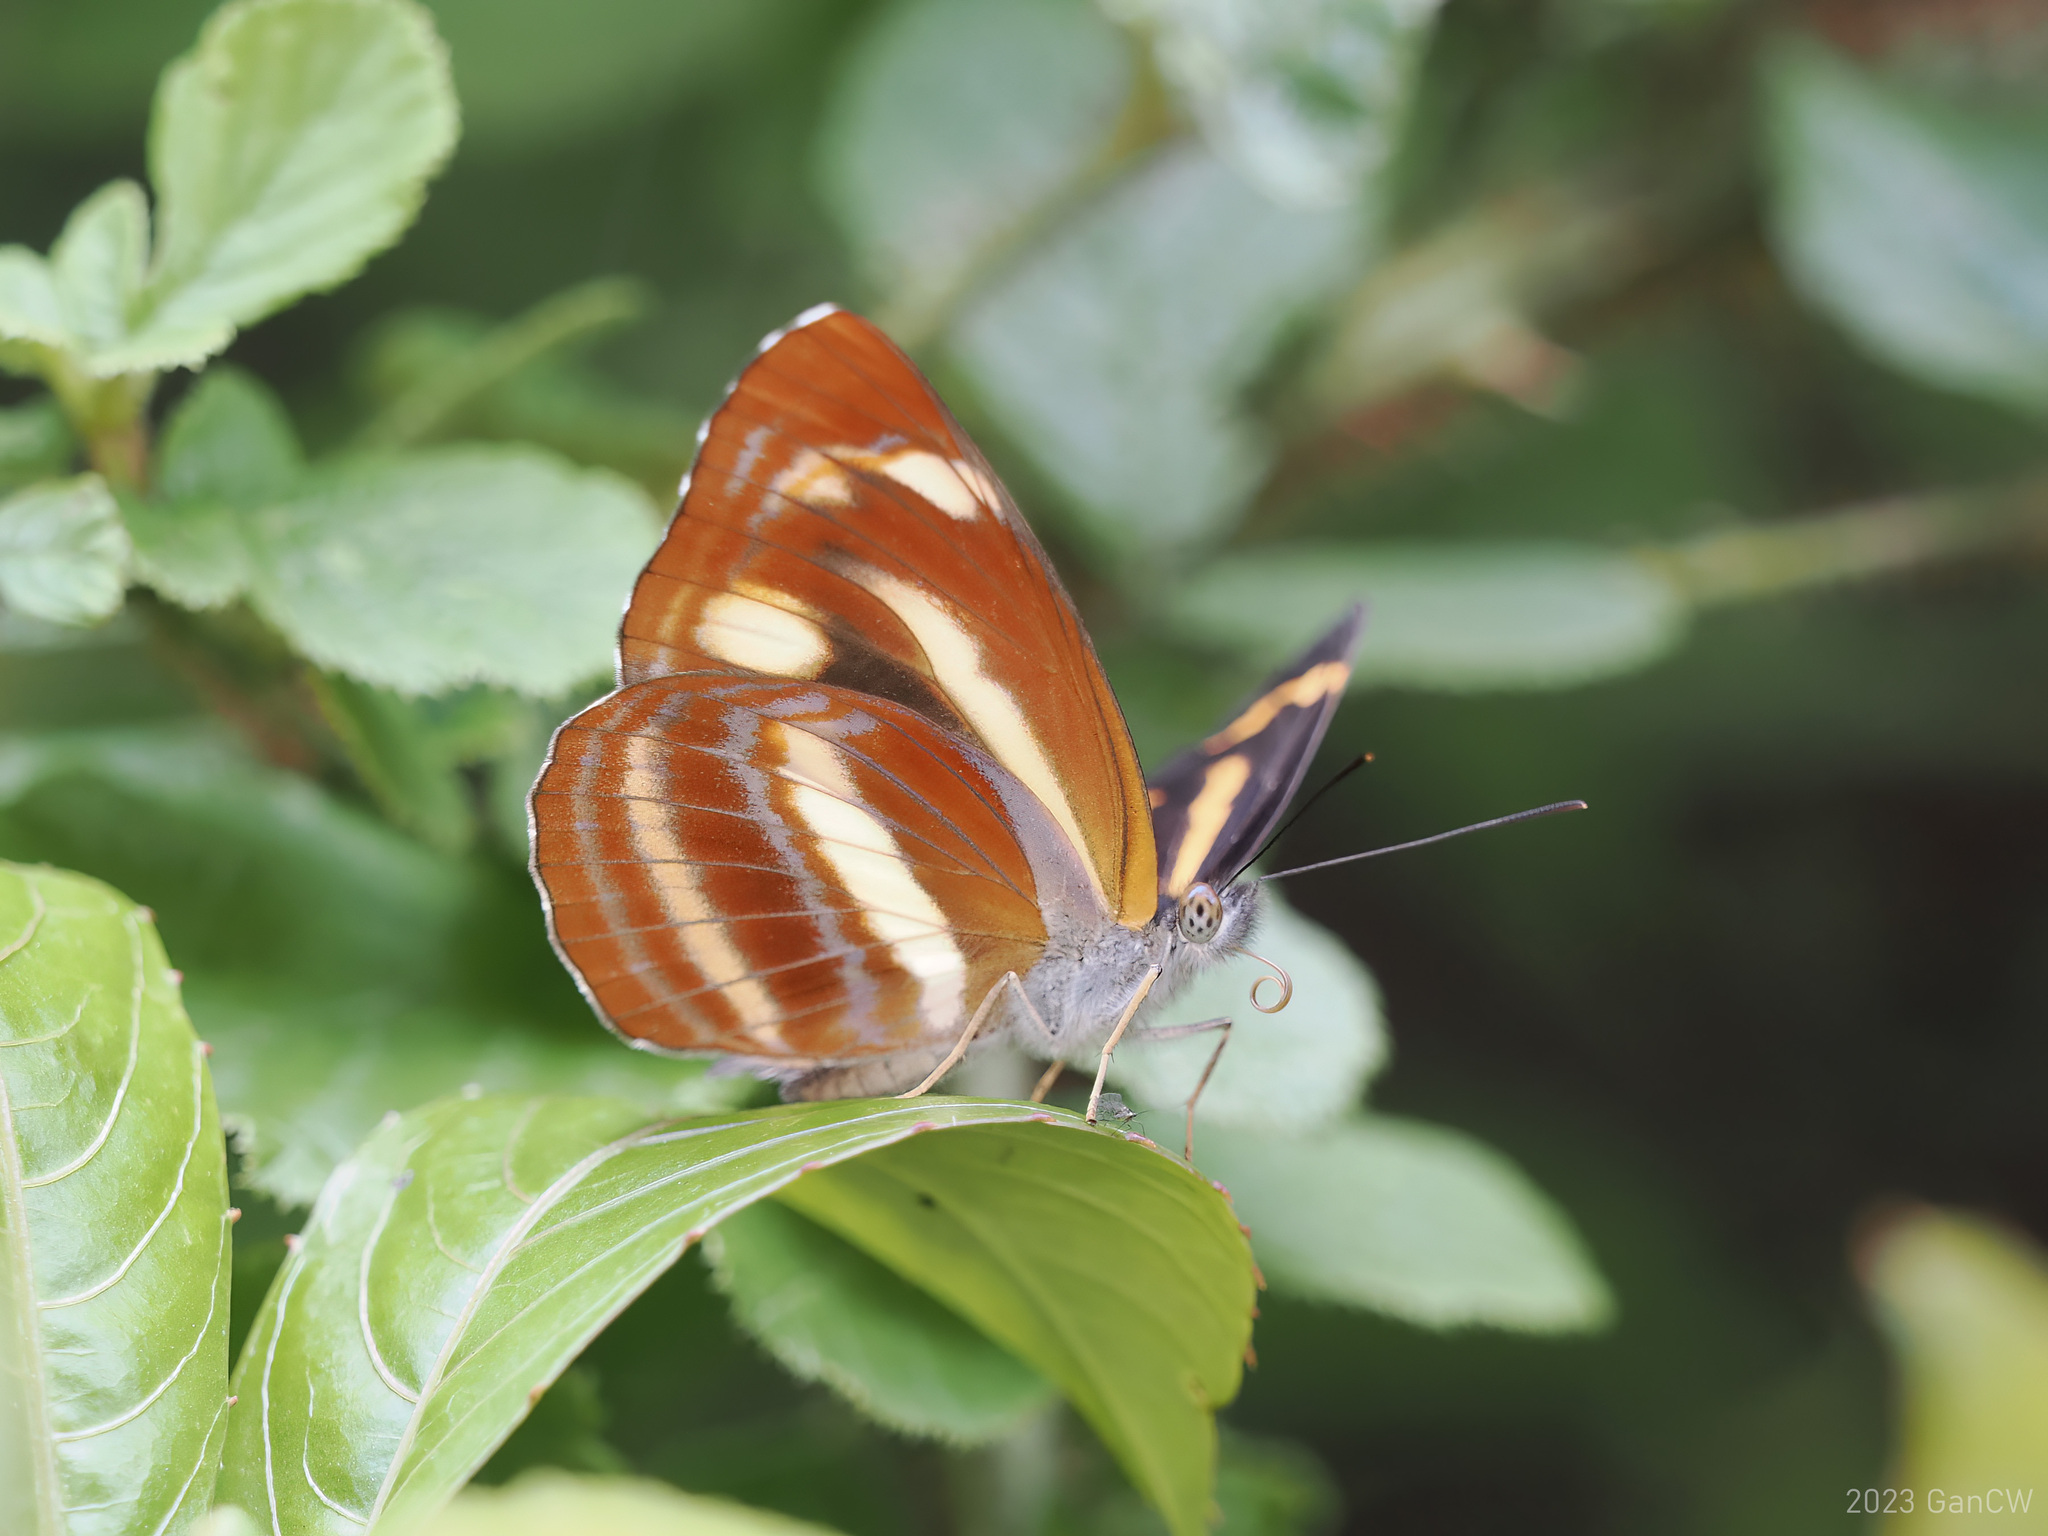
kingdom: Animalia
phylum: Arthropoda
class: Insecta
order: Lepidoptera
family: Nymphalidae
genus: Neptis
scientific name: Neptis ananta
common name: Yellow sailer
